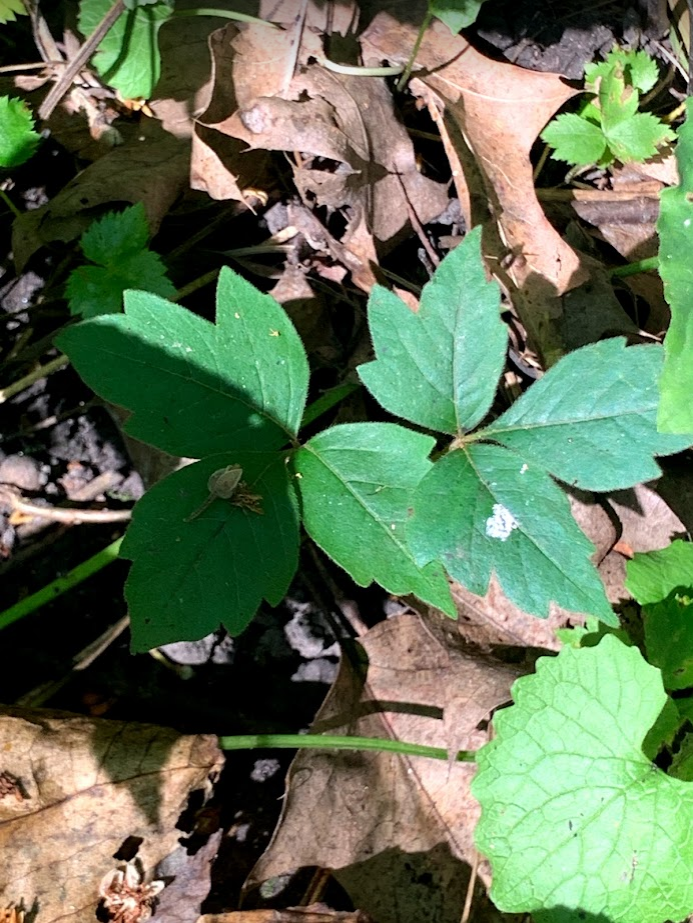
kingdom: Plantae
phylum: Tracheophyta
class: Magnoliopsida
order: Sapindales
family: Anacardiaceae
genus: Toxicodendron
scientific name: Toxicodendron radicans
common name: Poison ivy
